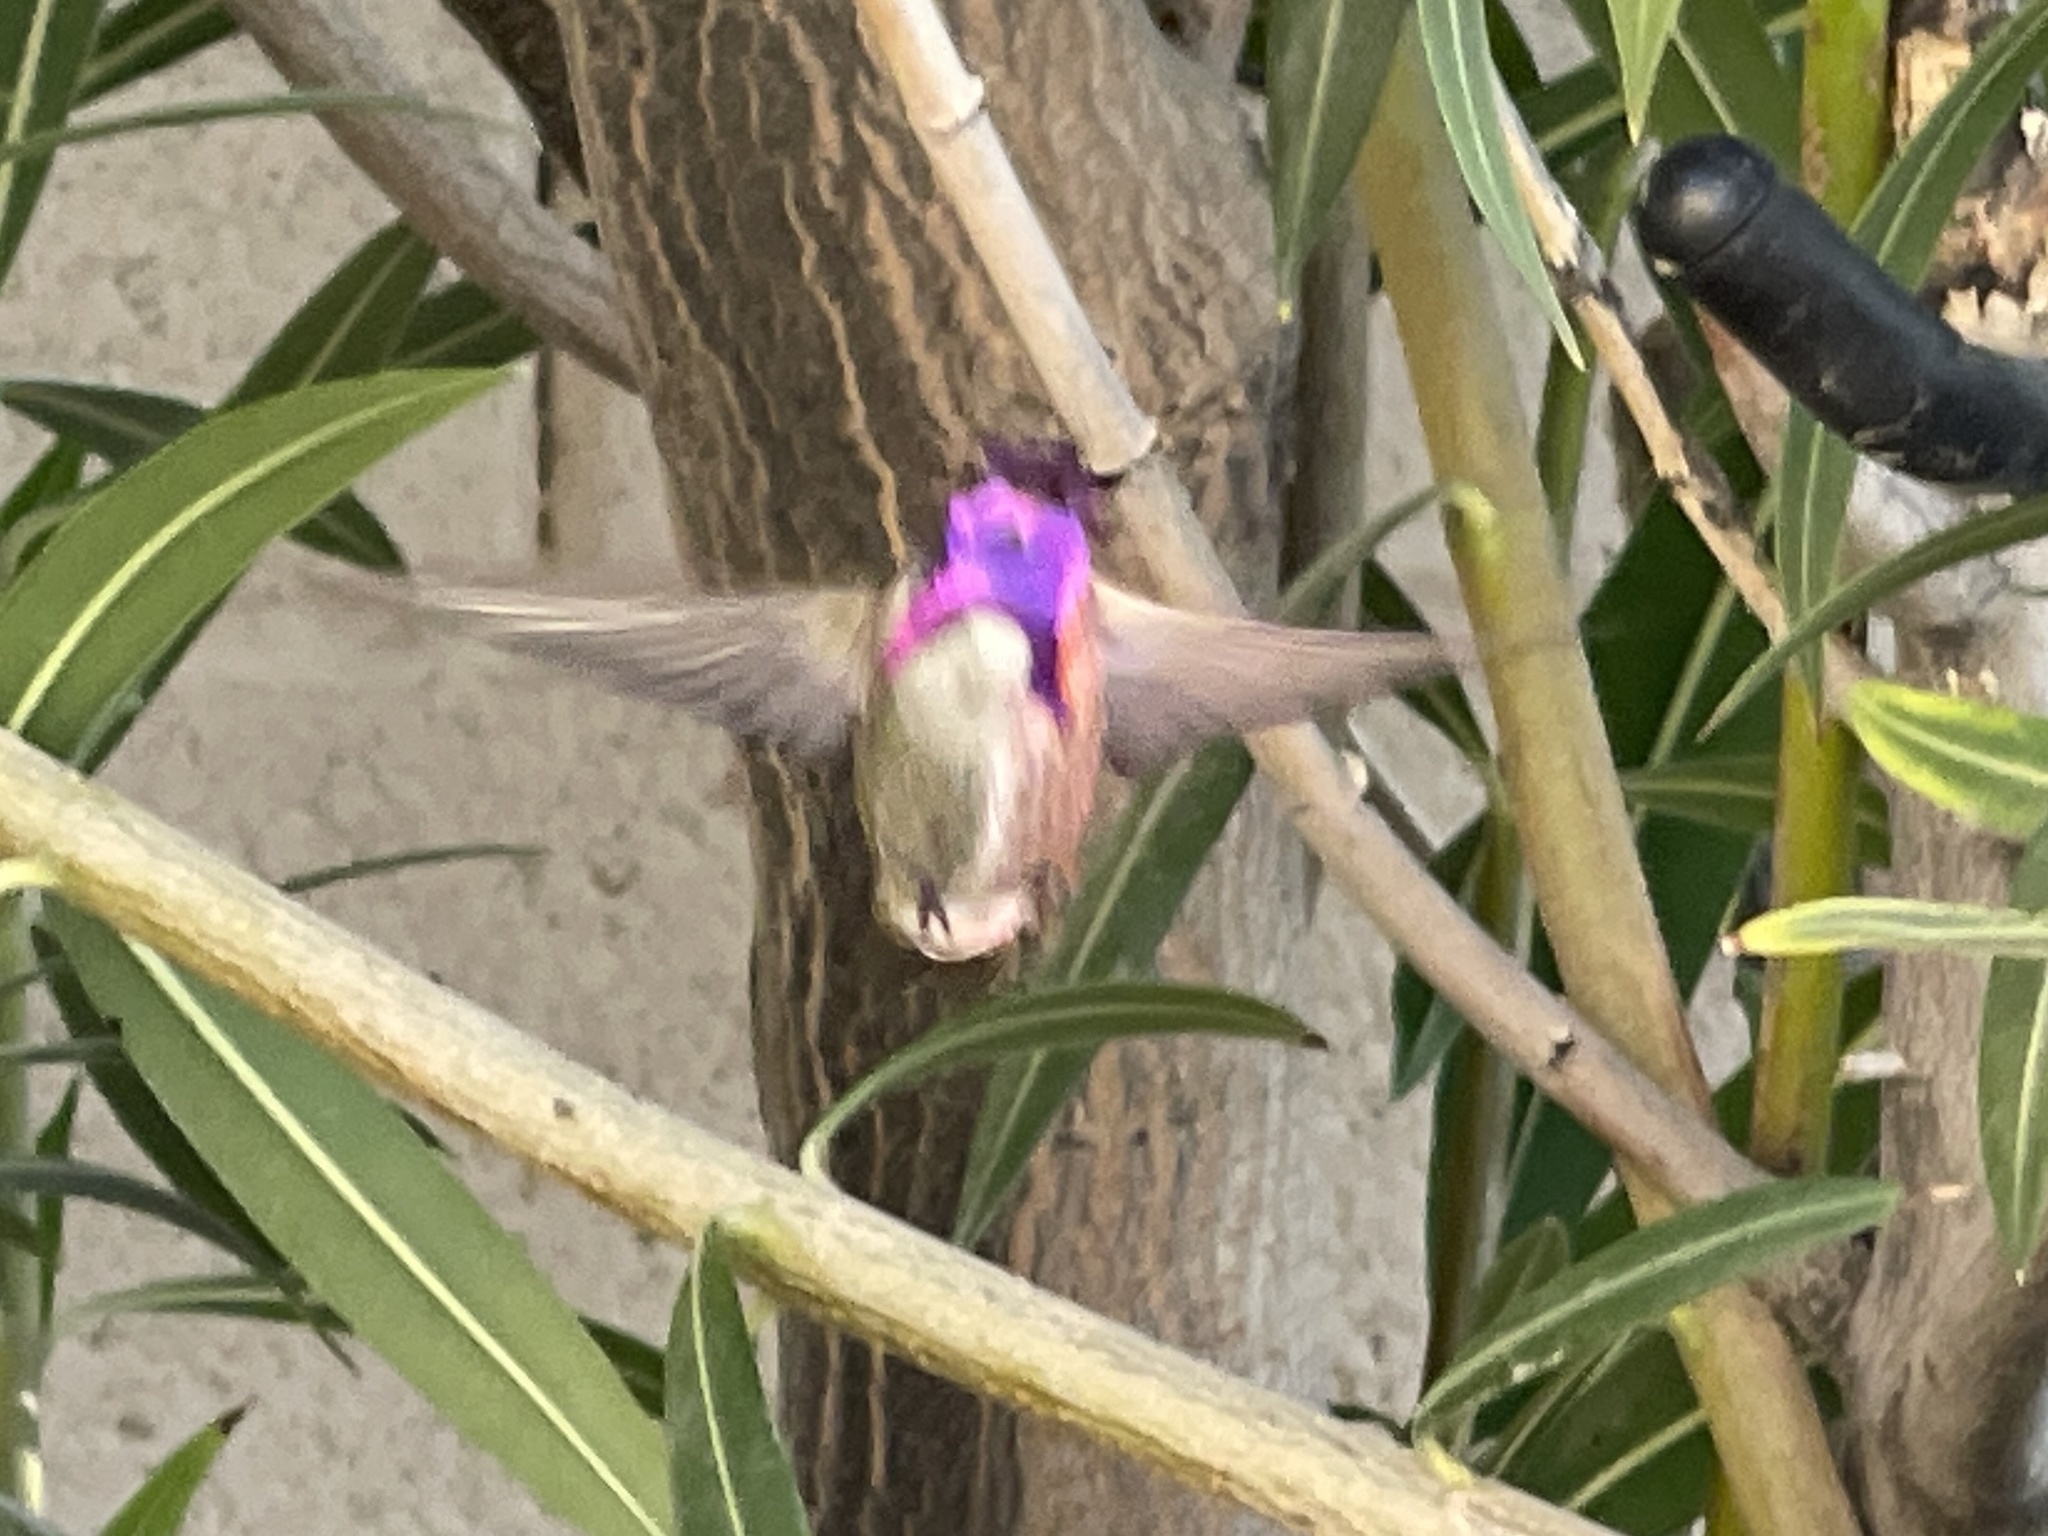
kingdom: Animalia
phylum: Chordata
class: Aves
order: Apodiformes
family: Trochilidae
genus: Calypte
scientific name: Calypte costae
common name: Costa's hummingbird
